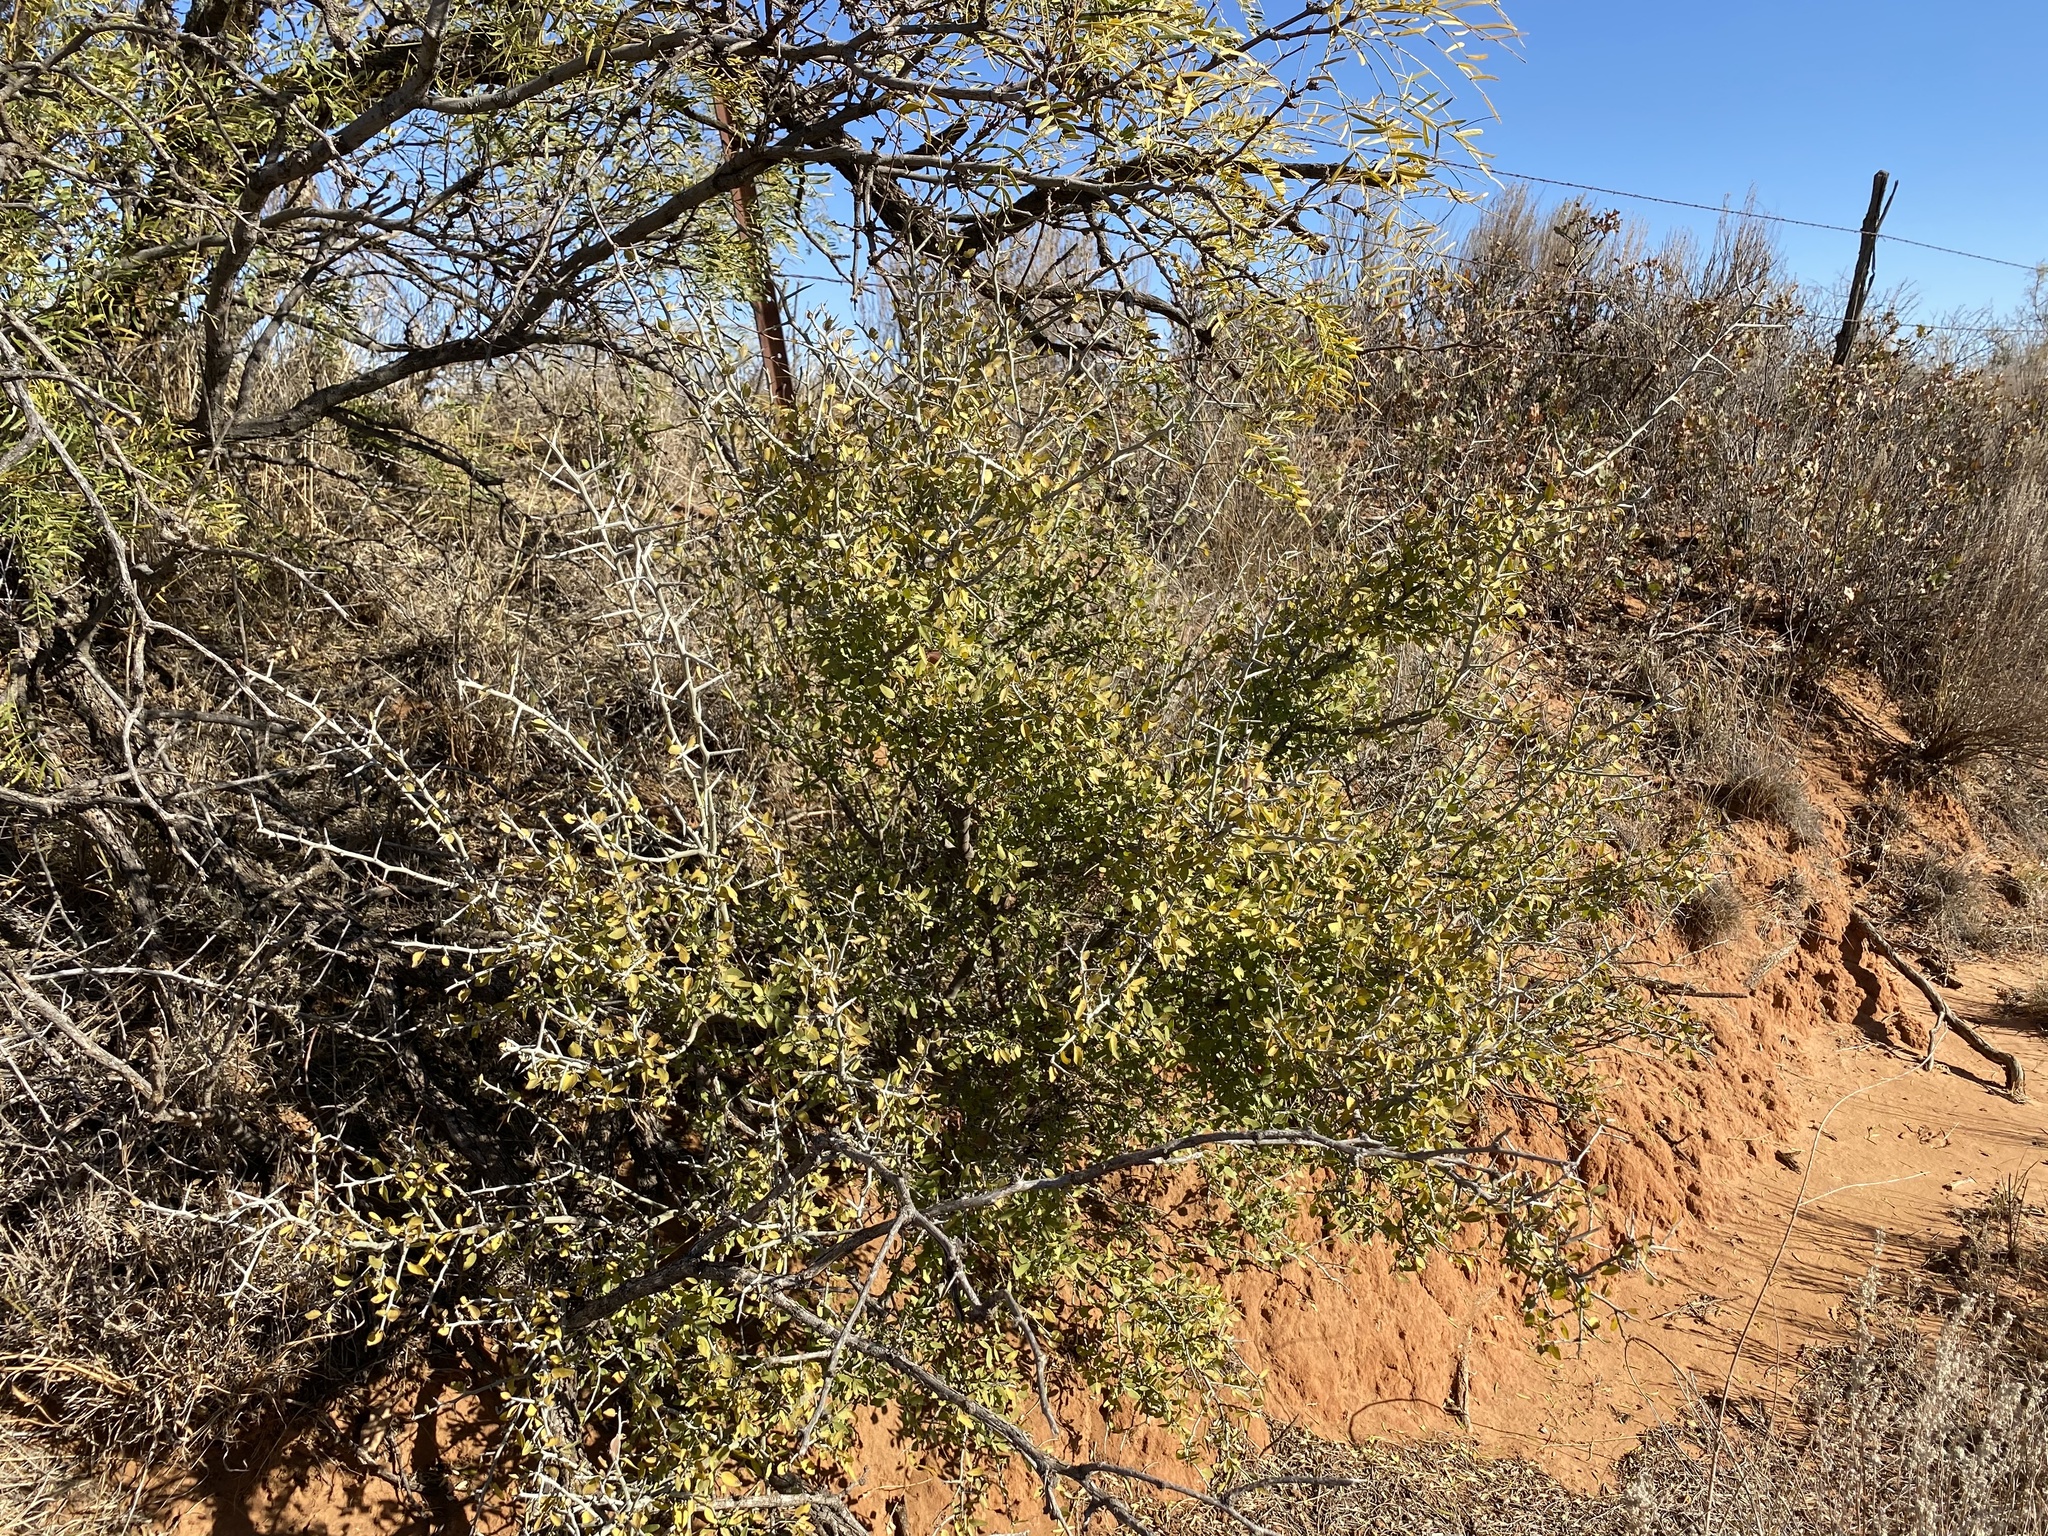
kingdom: Plantae
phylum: Tracheophyta
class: Magnoliopsida
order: Rosales
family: Rhamnaceae
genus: Sarcomphalus
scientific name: Sarcomphalus obtusifolius
